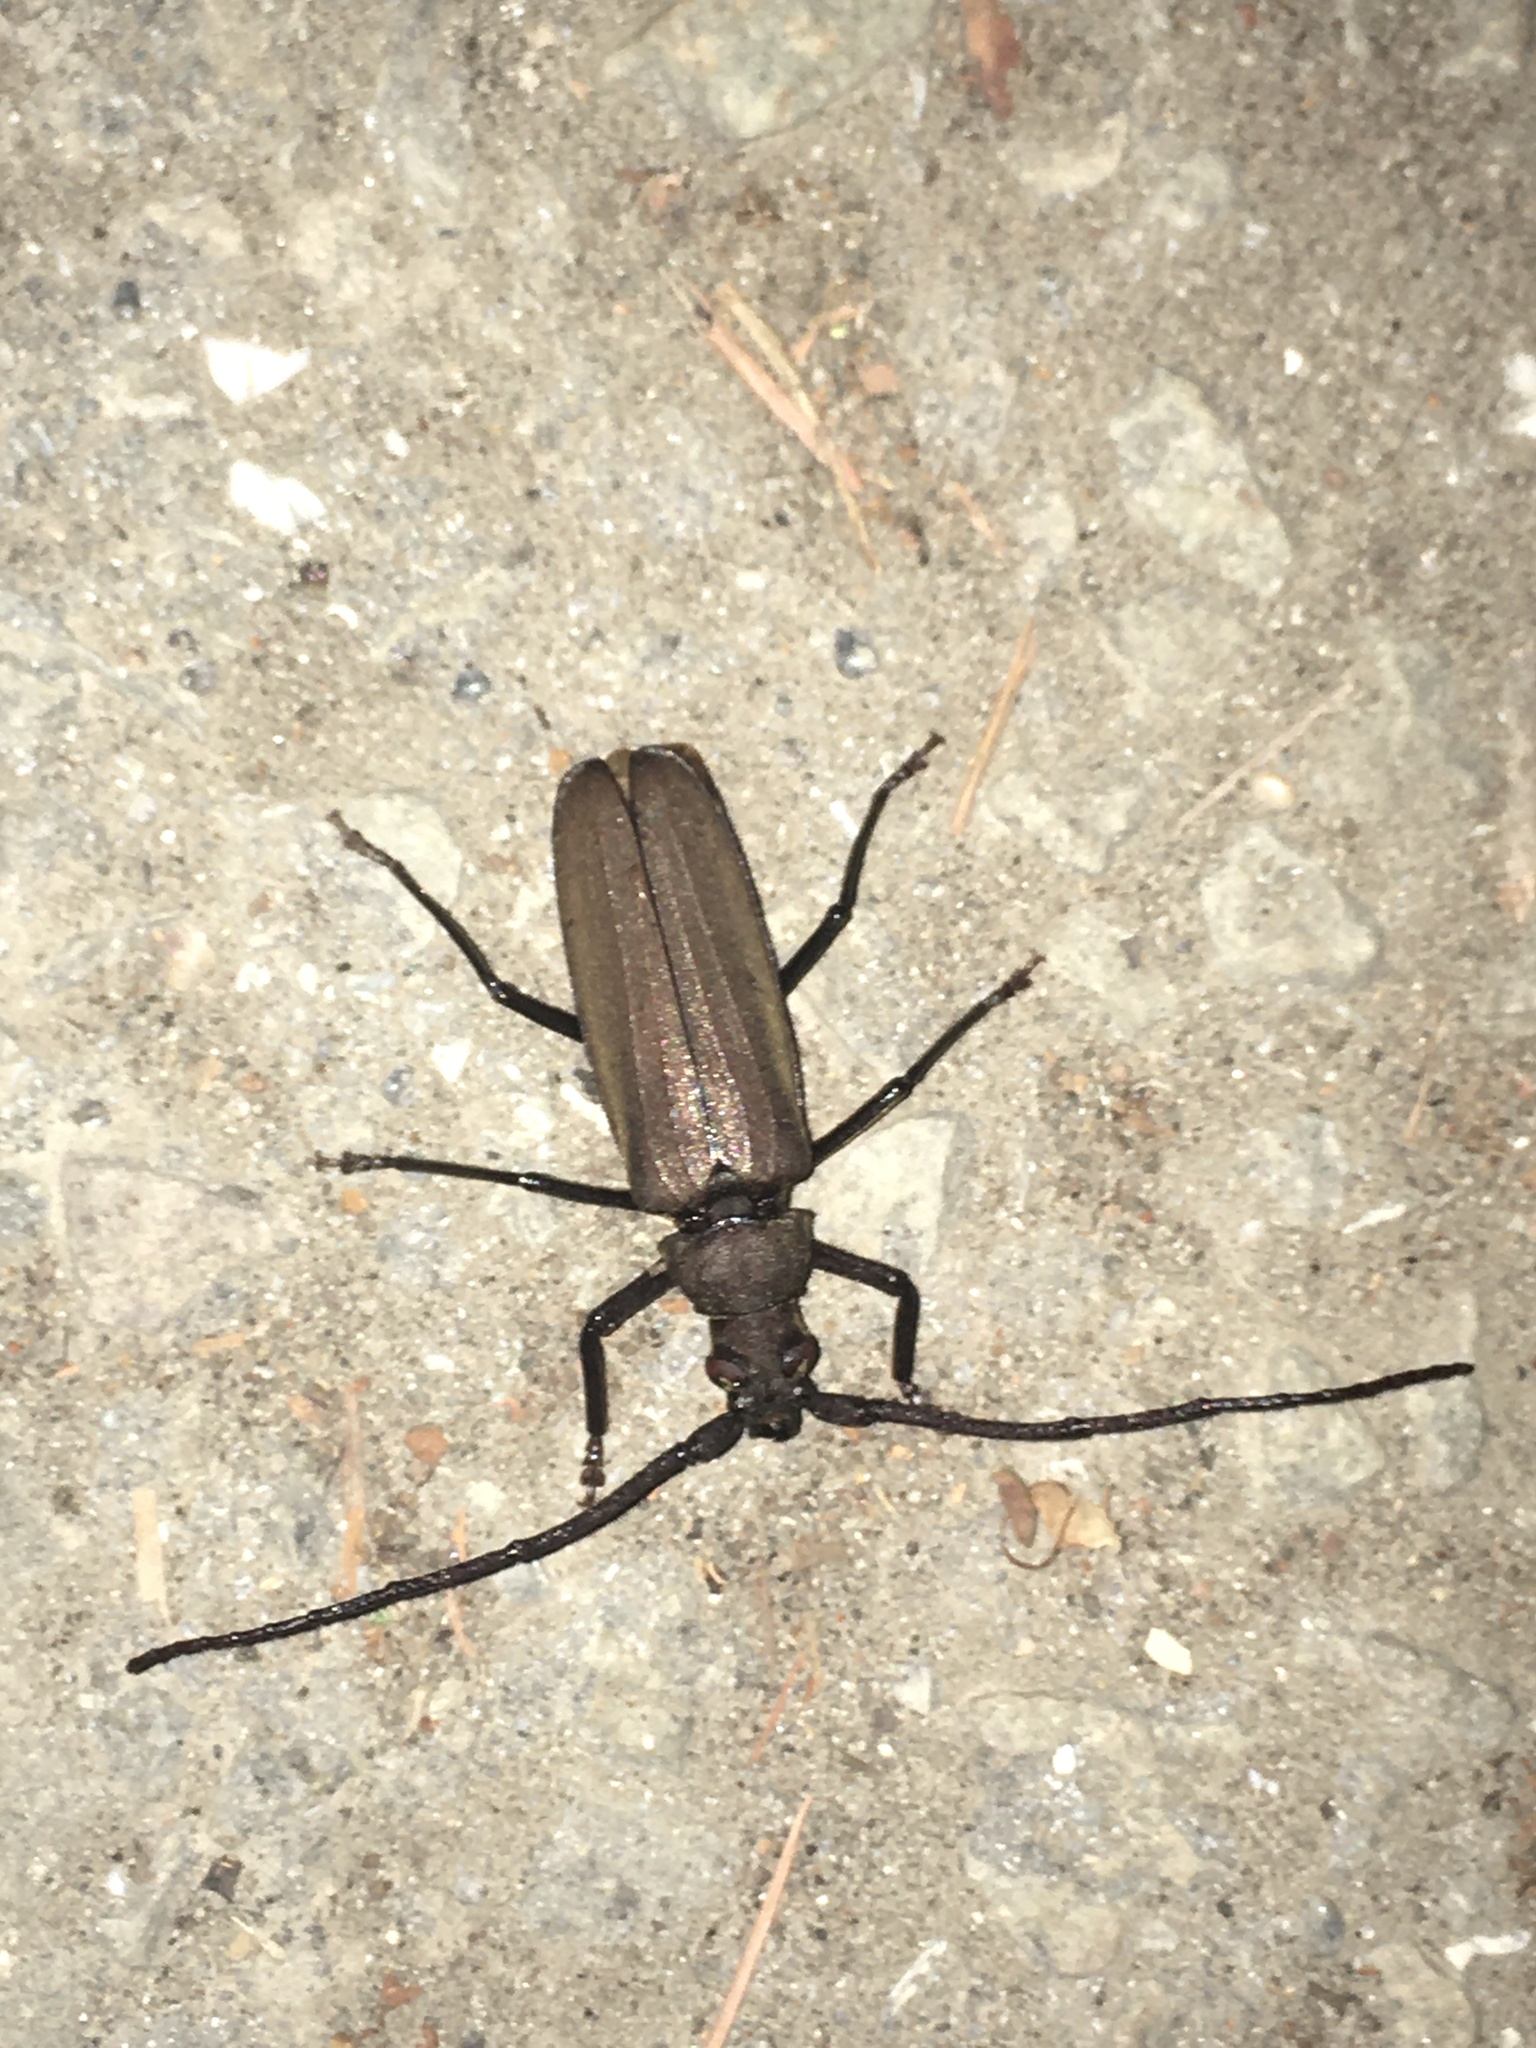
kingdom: Animalia
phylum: Arthropoda
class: Insecta
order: Coleoptera
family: Cerambycidae
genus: Aegosoma
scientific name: Aegosoma scabricorne
